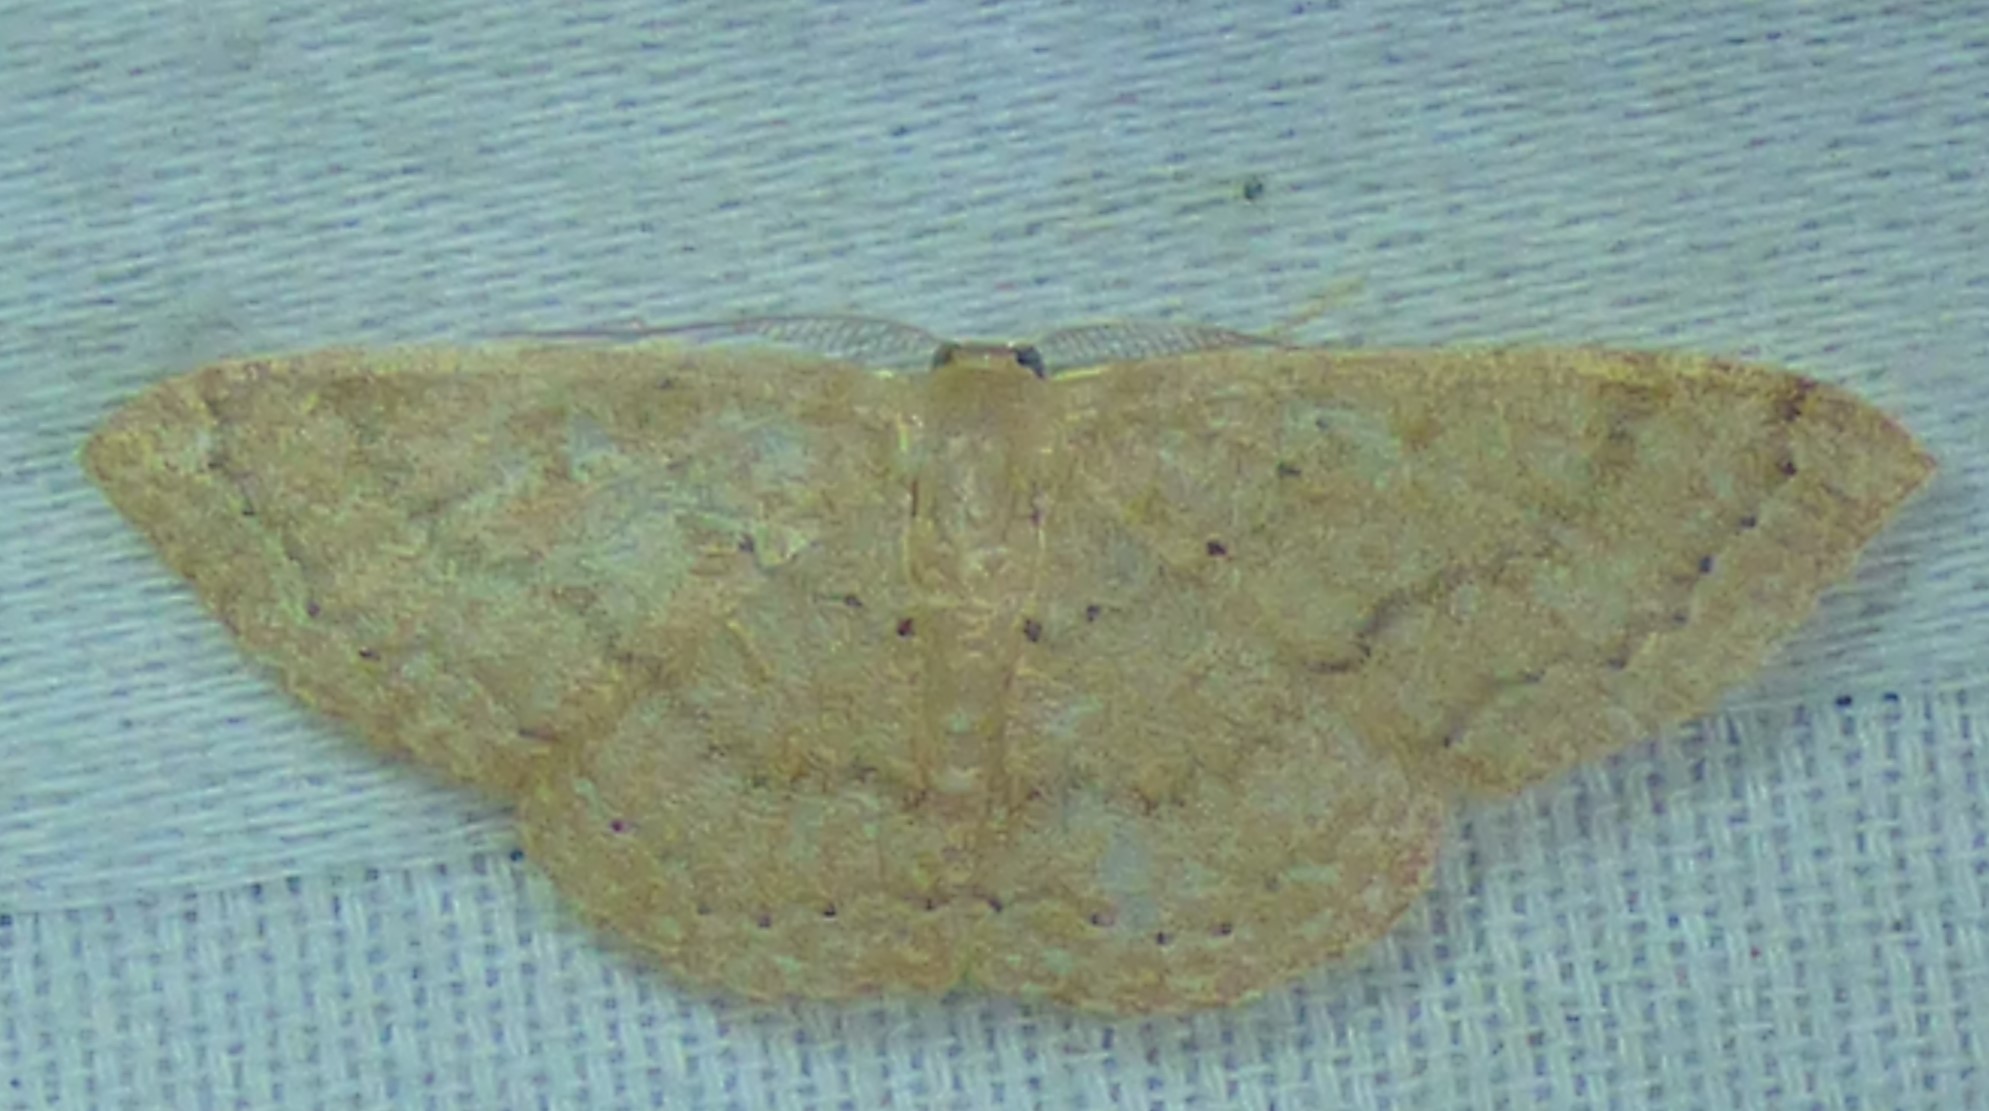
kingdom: Animalia
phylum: Arthropoda
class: Insecta
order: Lepidoptera
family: Geometridae
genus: Pleuroprucha
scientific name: Pleuroprucha insulsaria
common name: Common tan wave
